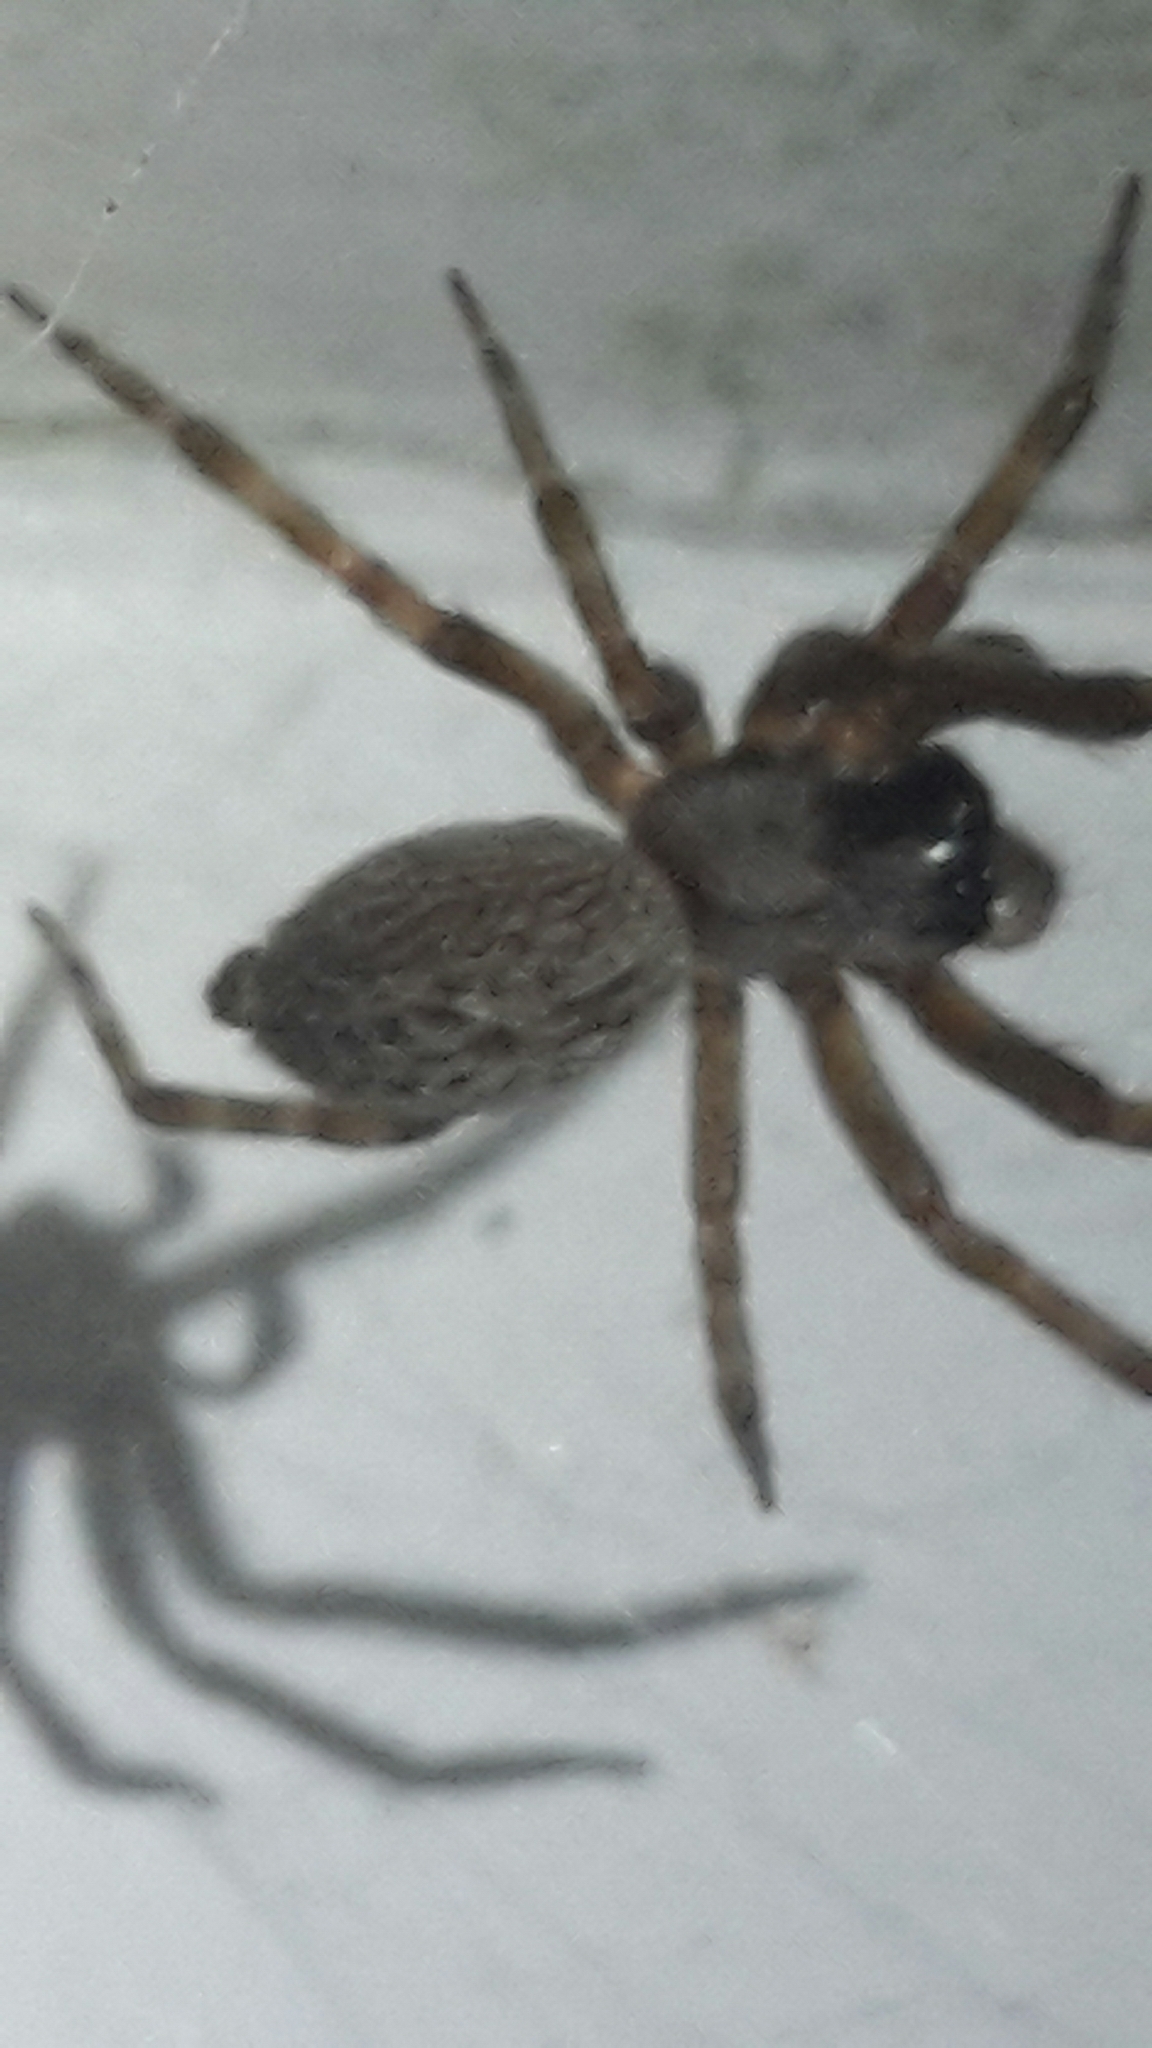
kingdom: Animalia
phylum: Arthropoda
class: Arachnida
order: Araneae
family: Desidae
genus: Badumna
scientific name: Badumna longinqua
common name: Gray house spider
